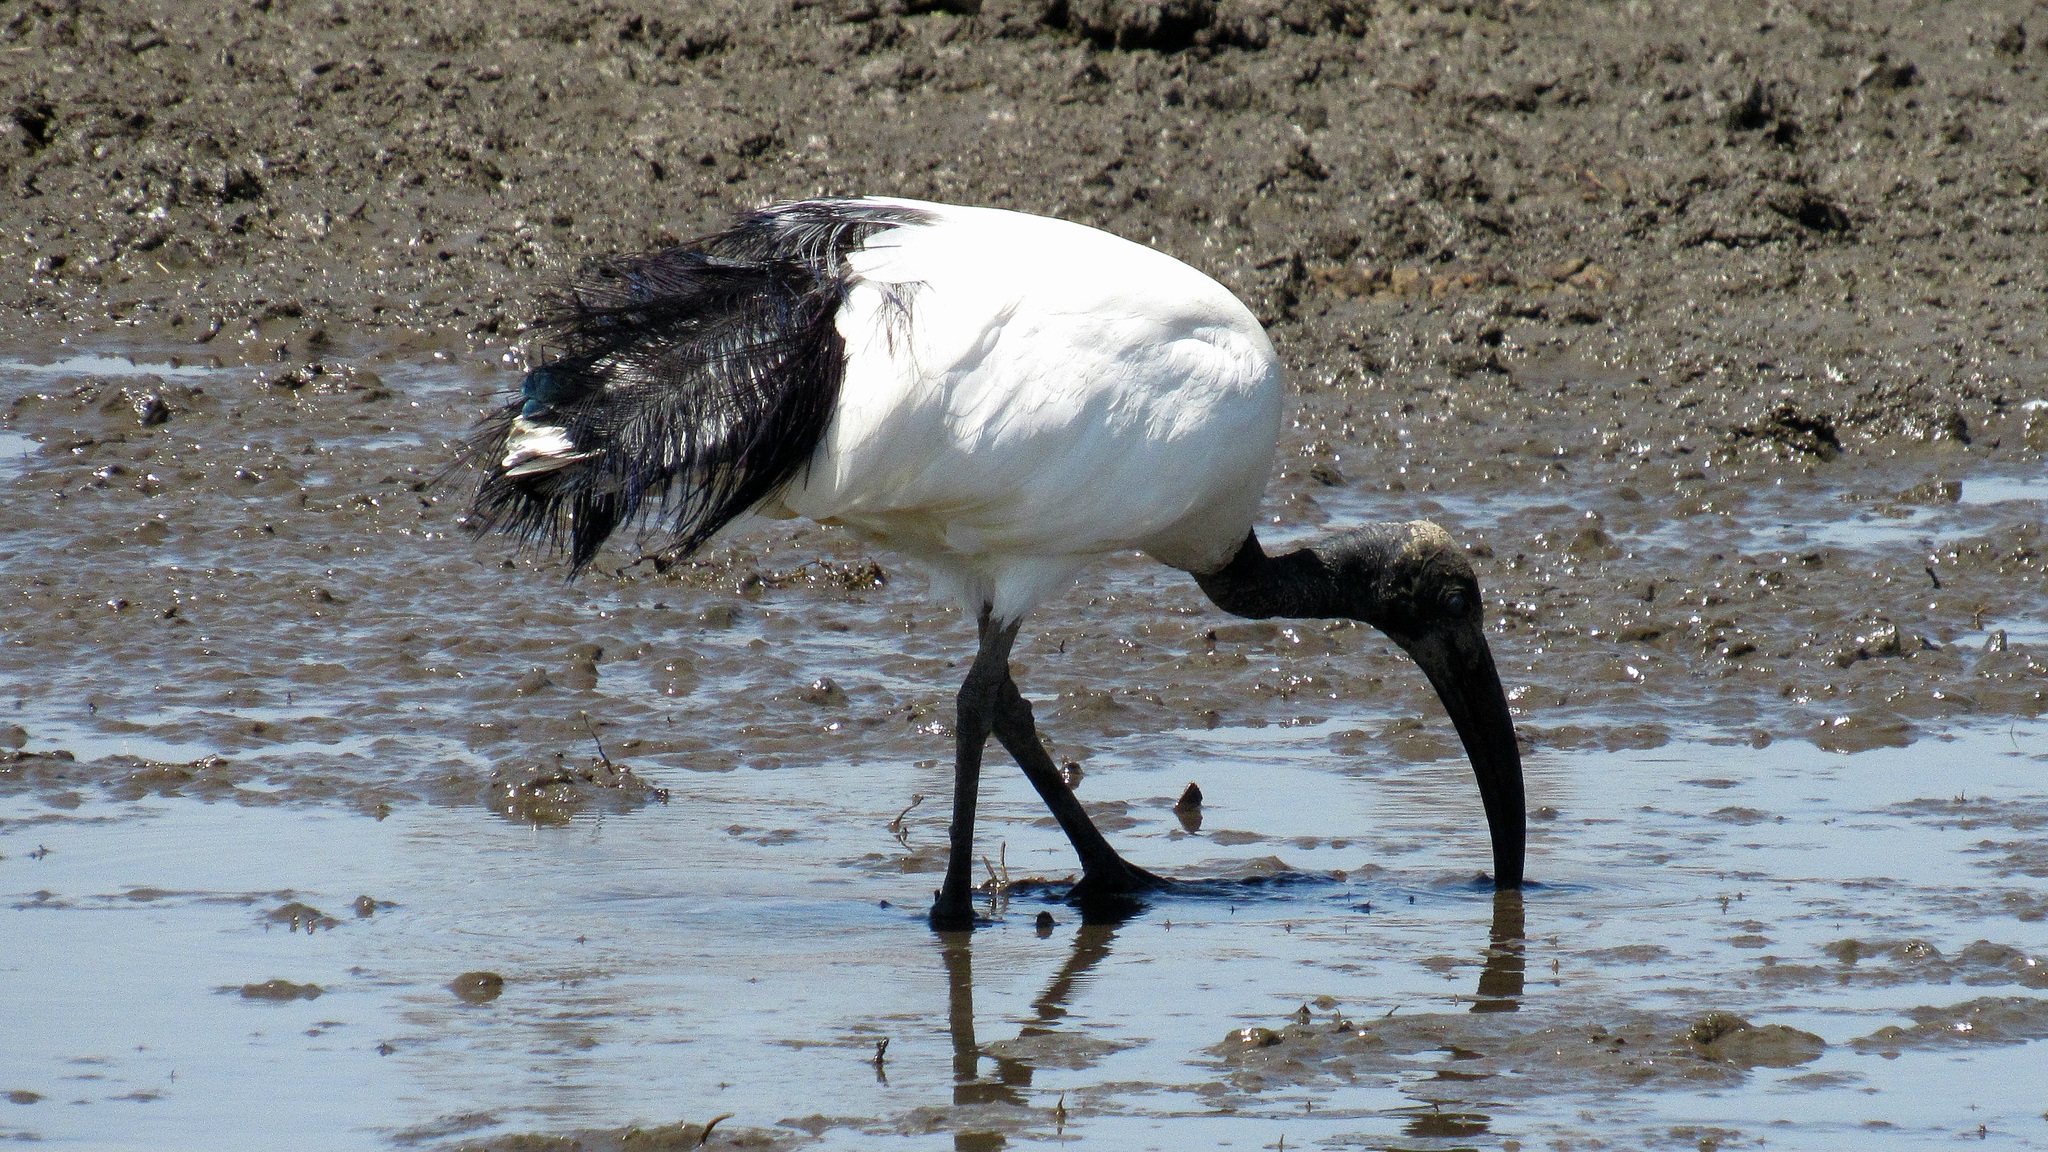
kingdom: Animalia
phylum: Chordata
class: Aves
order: Pelecaniformes
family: Threskiornithidae
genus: Threskiornis
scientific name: Threskiornis aethiopicus
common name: Sacred ibis
